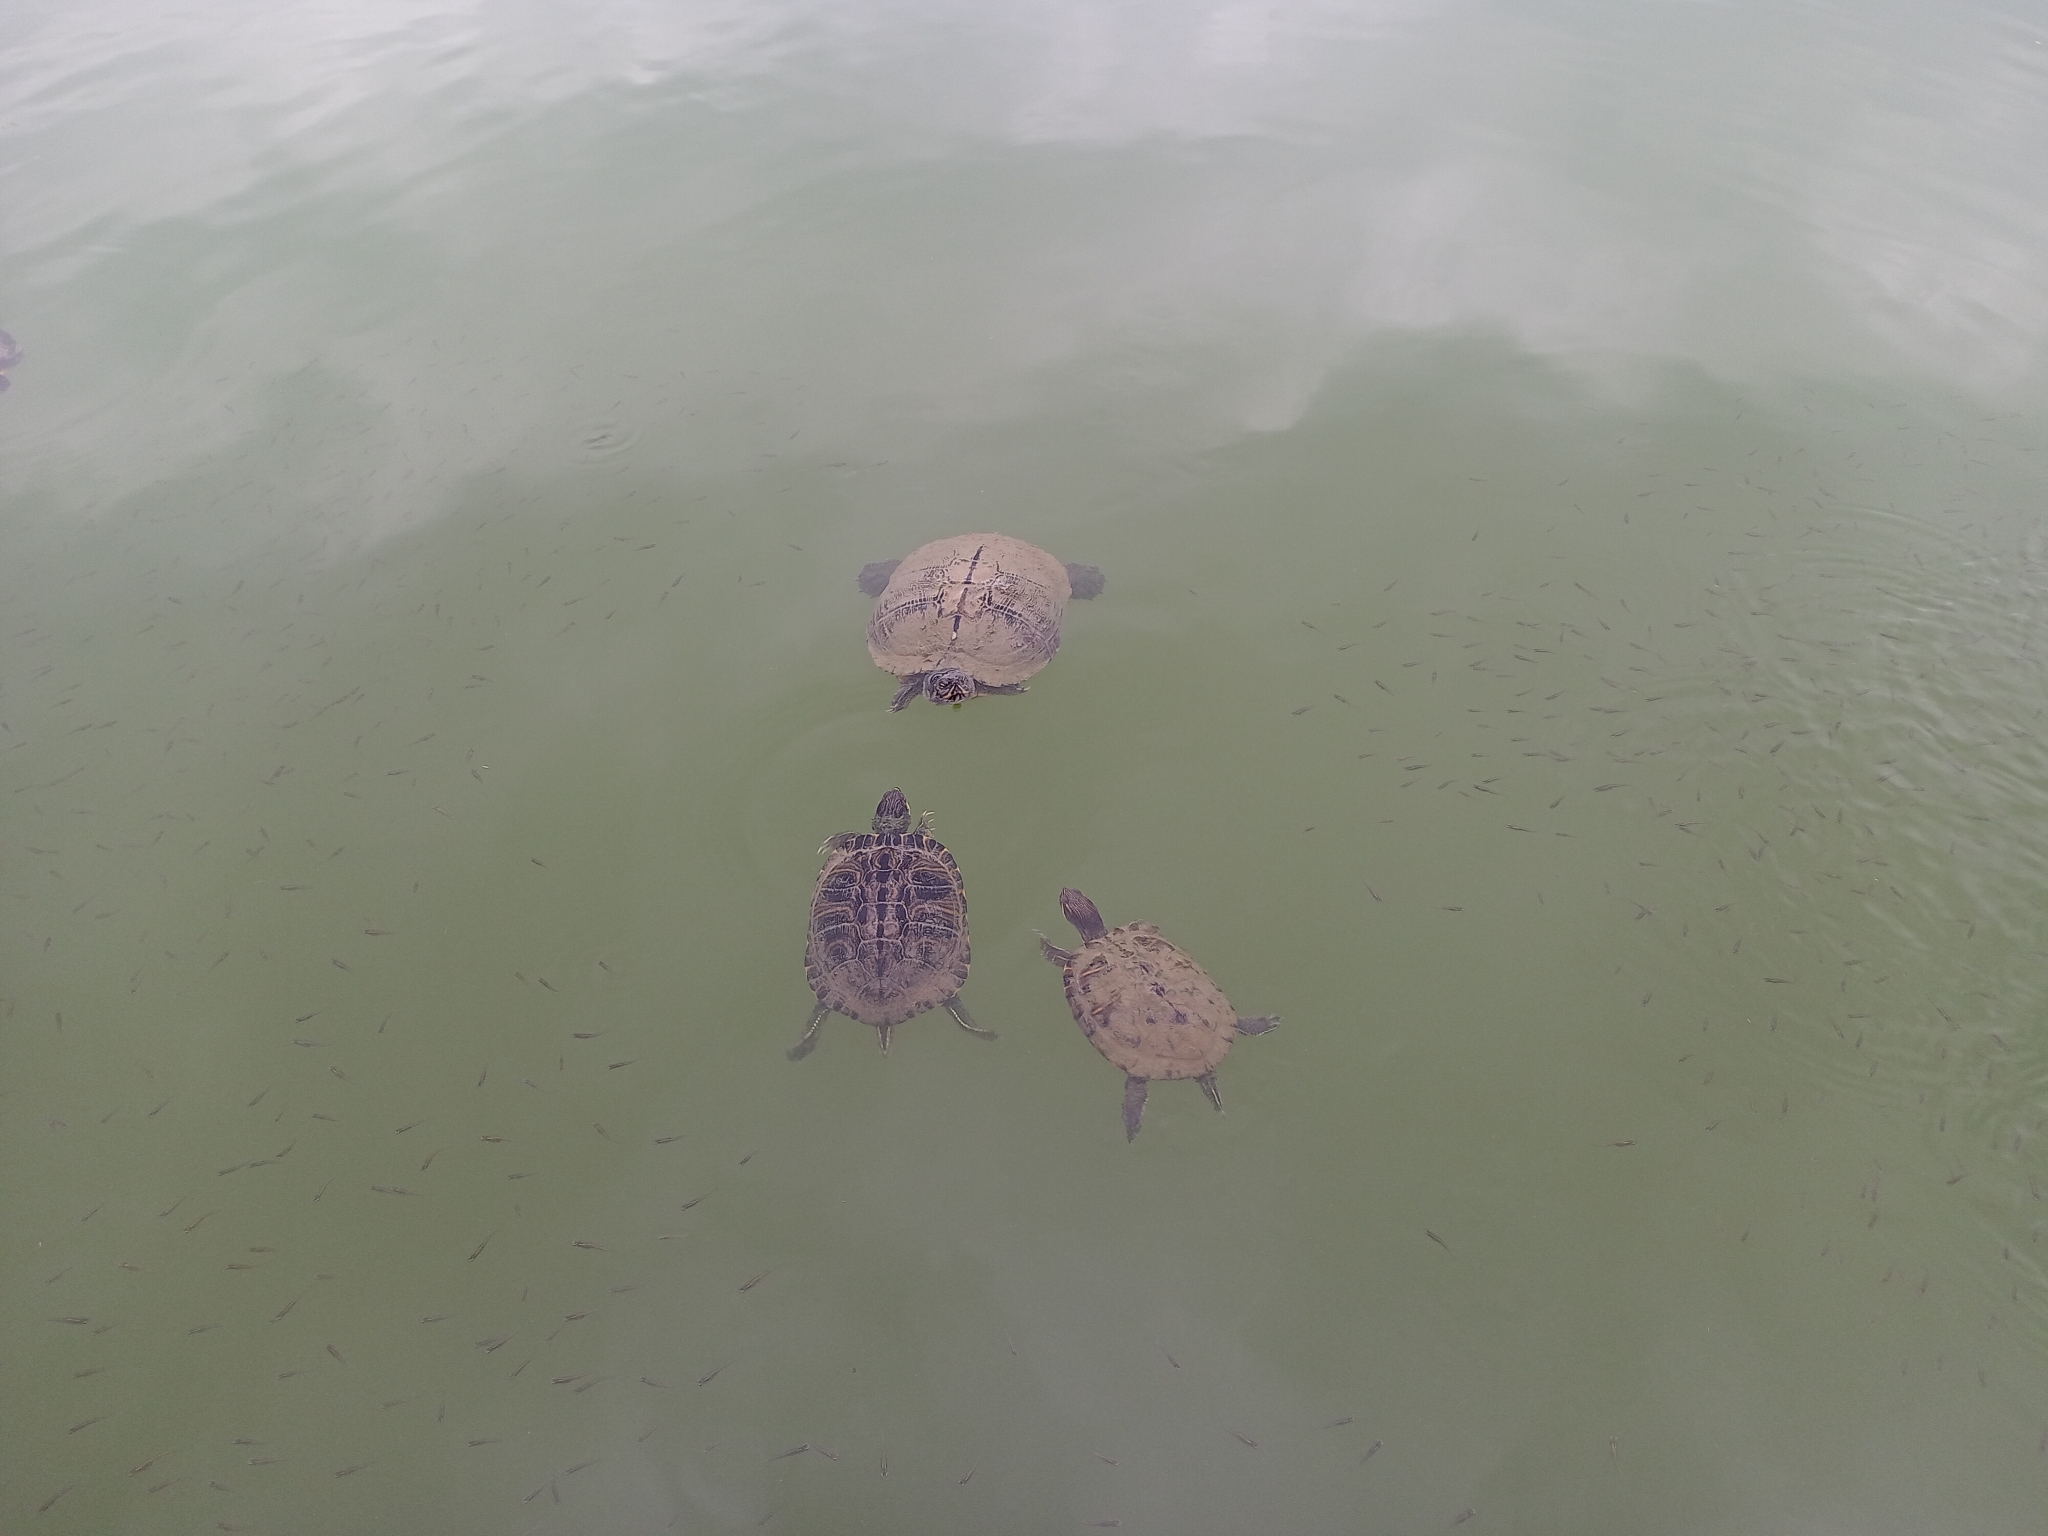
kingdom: Animalia
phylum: Chordata
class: Testudines
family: Emydidae
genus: Trachemys
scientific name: Trachemys scripta
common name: Slider
